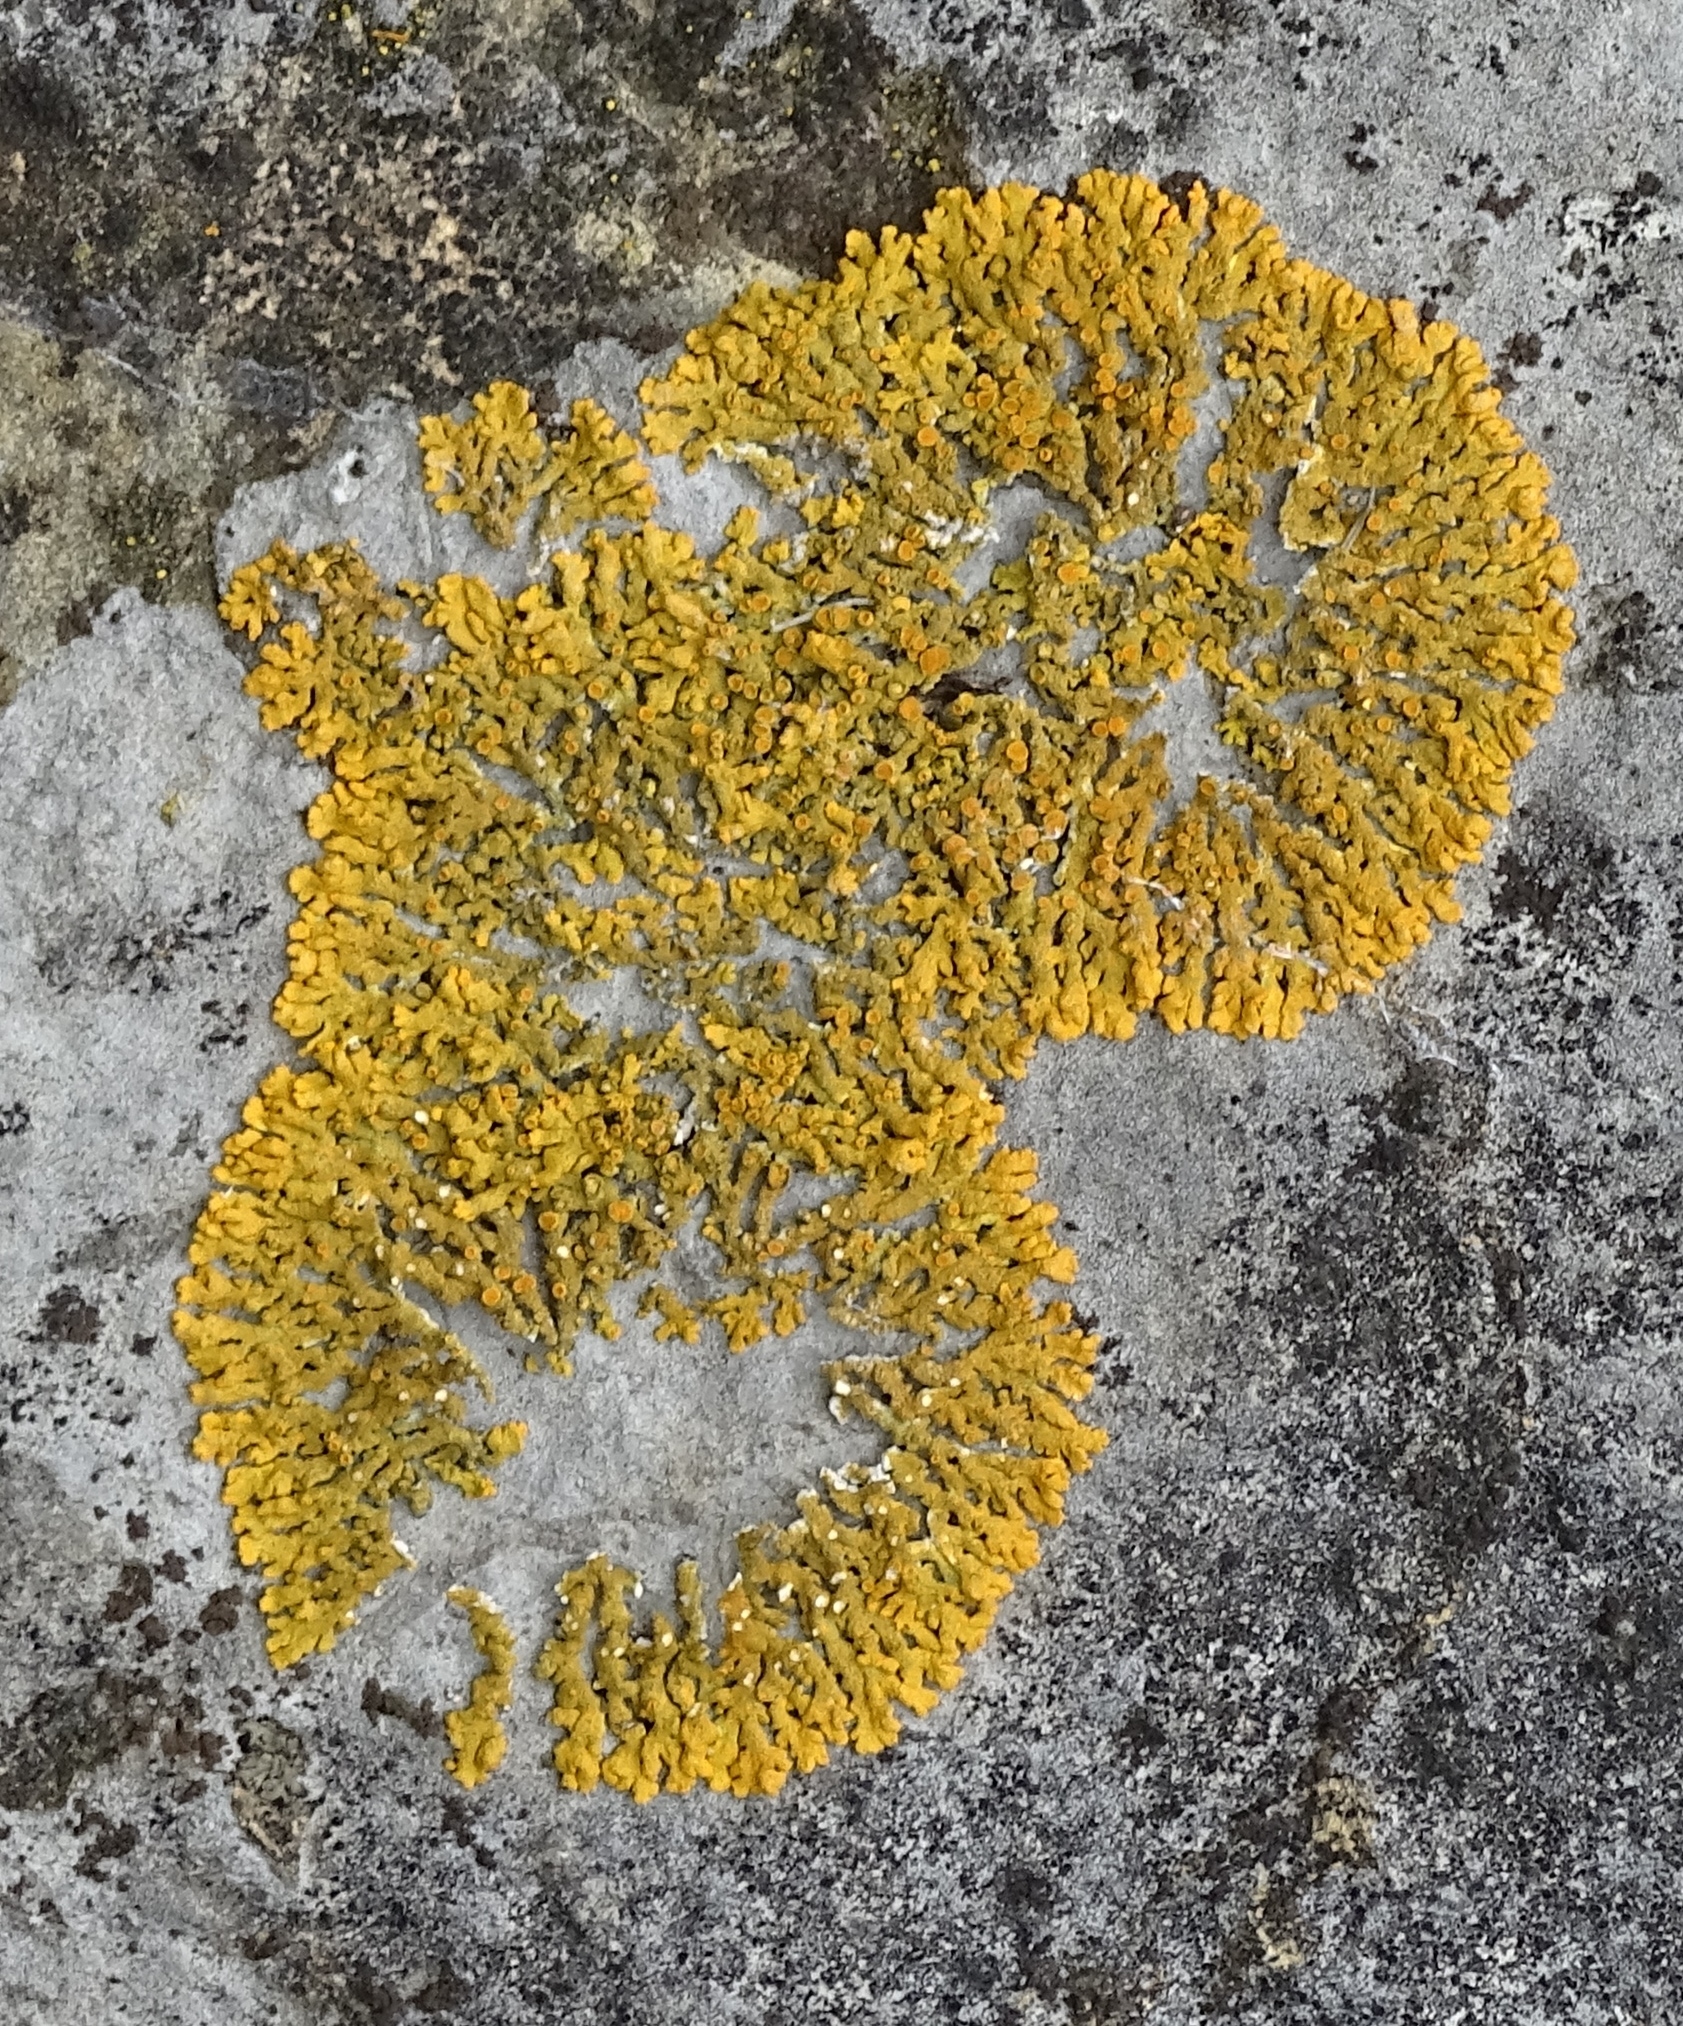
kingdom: Fungi
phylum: Ascomycota
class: Lecanoromycetes
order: Teloschistales
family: Teloschistaceae
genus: Xanthoria
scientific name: Xanthoria elegans
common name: Elegant sunburst lichen
